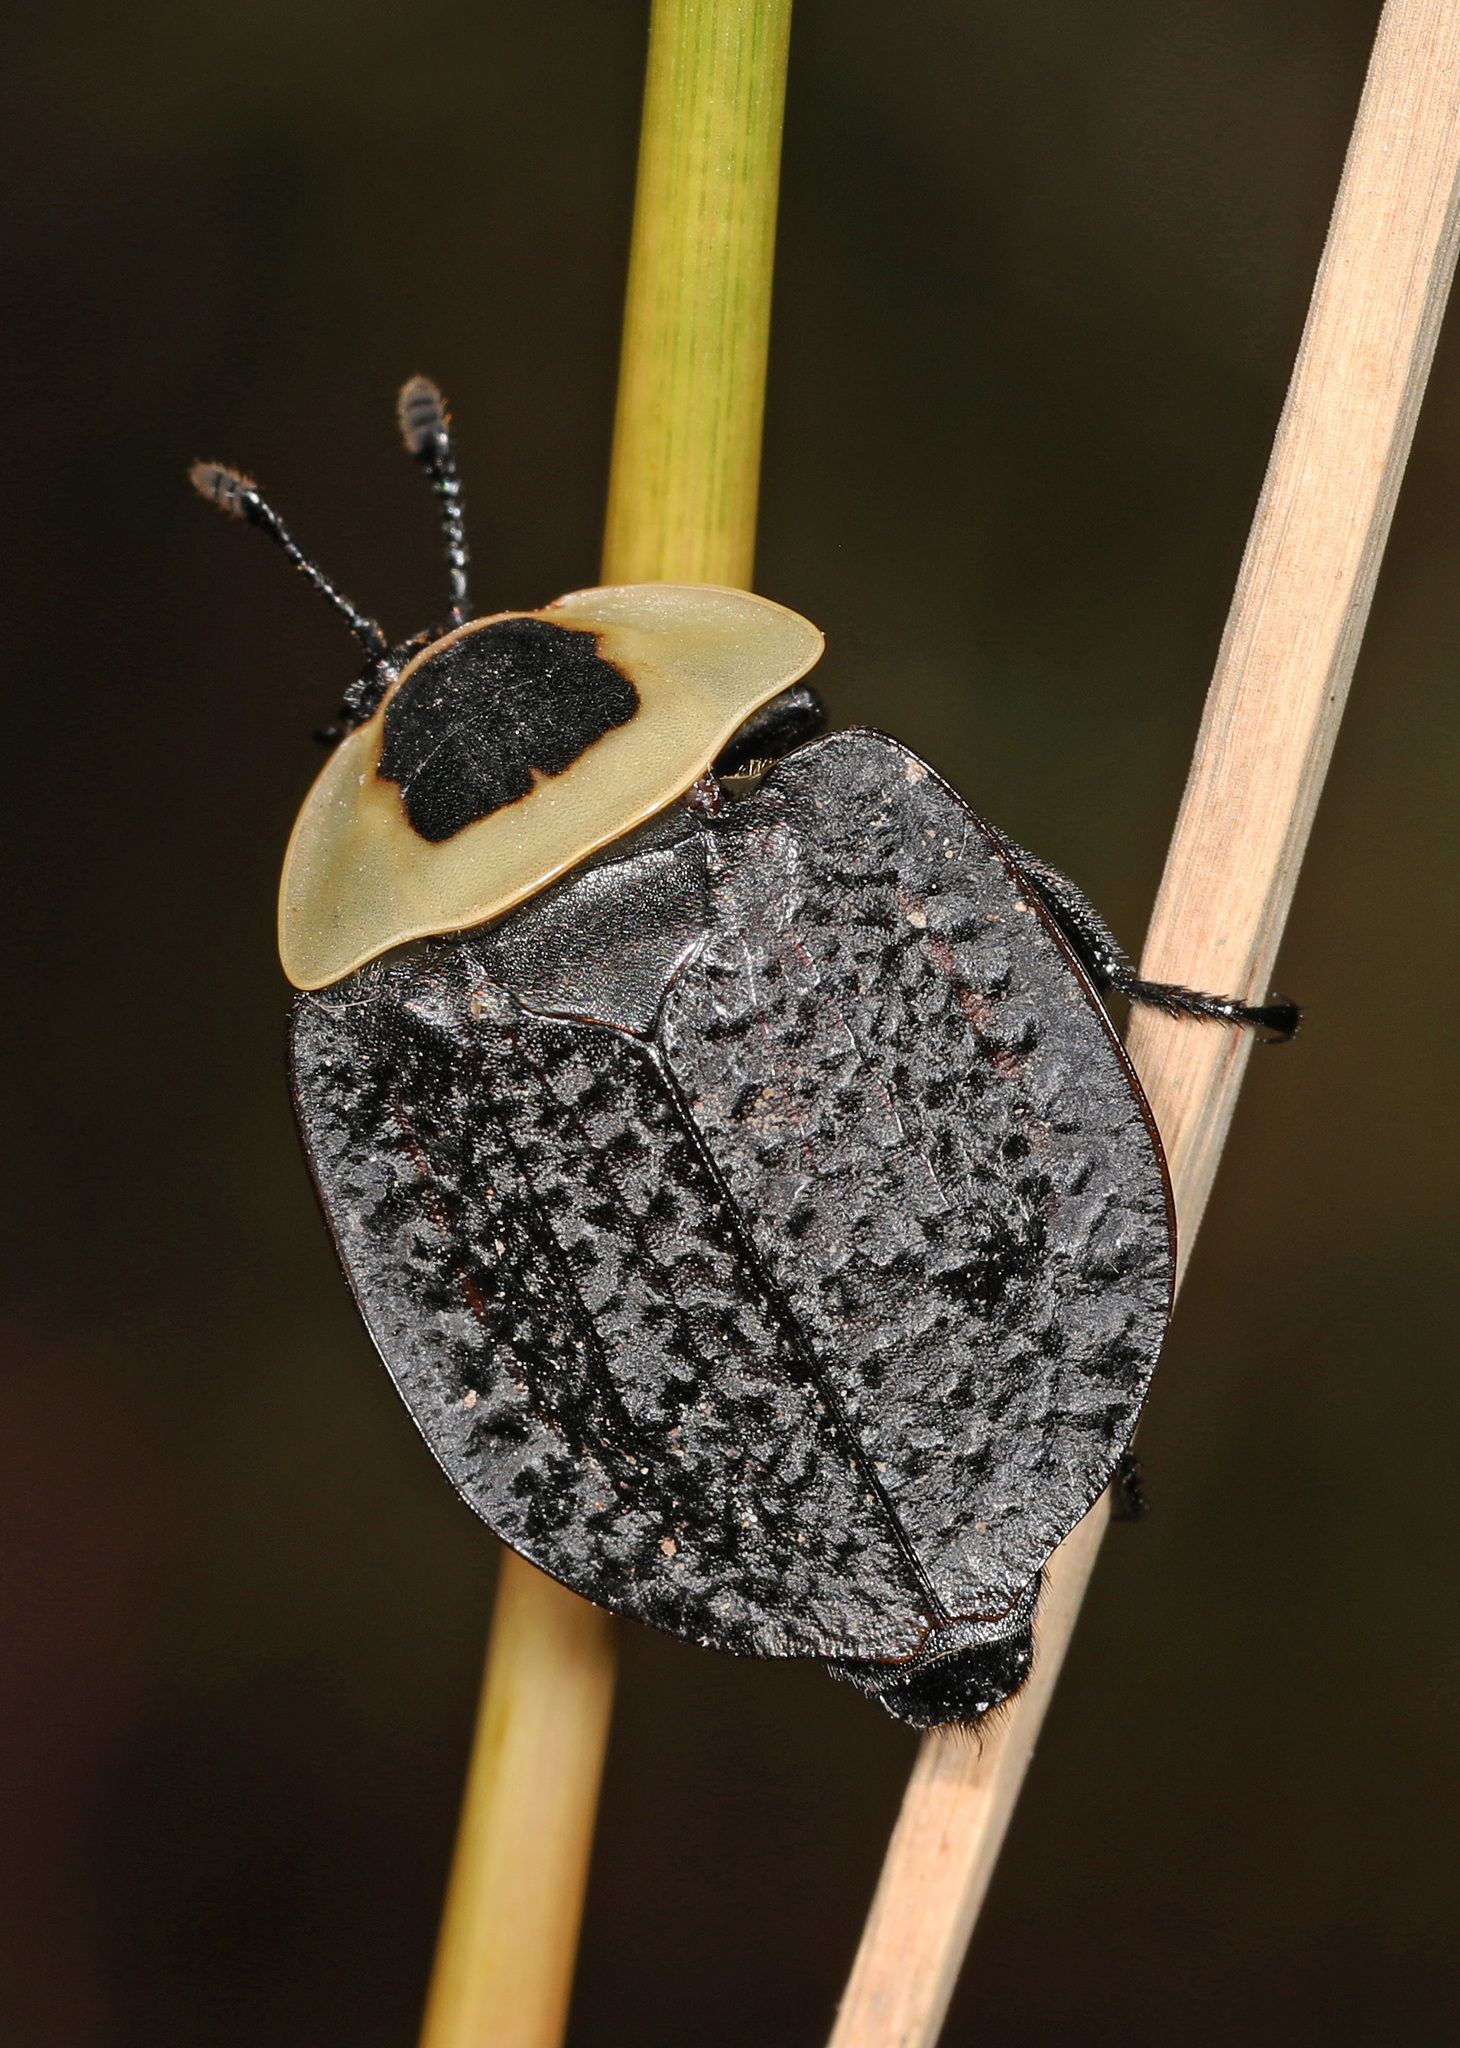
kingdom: Animalia
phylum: Arthropoda
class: Insecta
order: Coleoptera
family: Staphylinidae
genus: Necrophila
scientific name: Necrophila americana
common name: American carrion beetle
